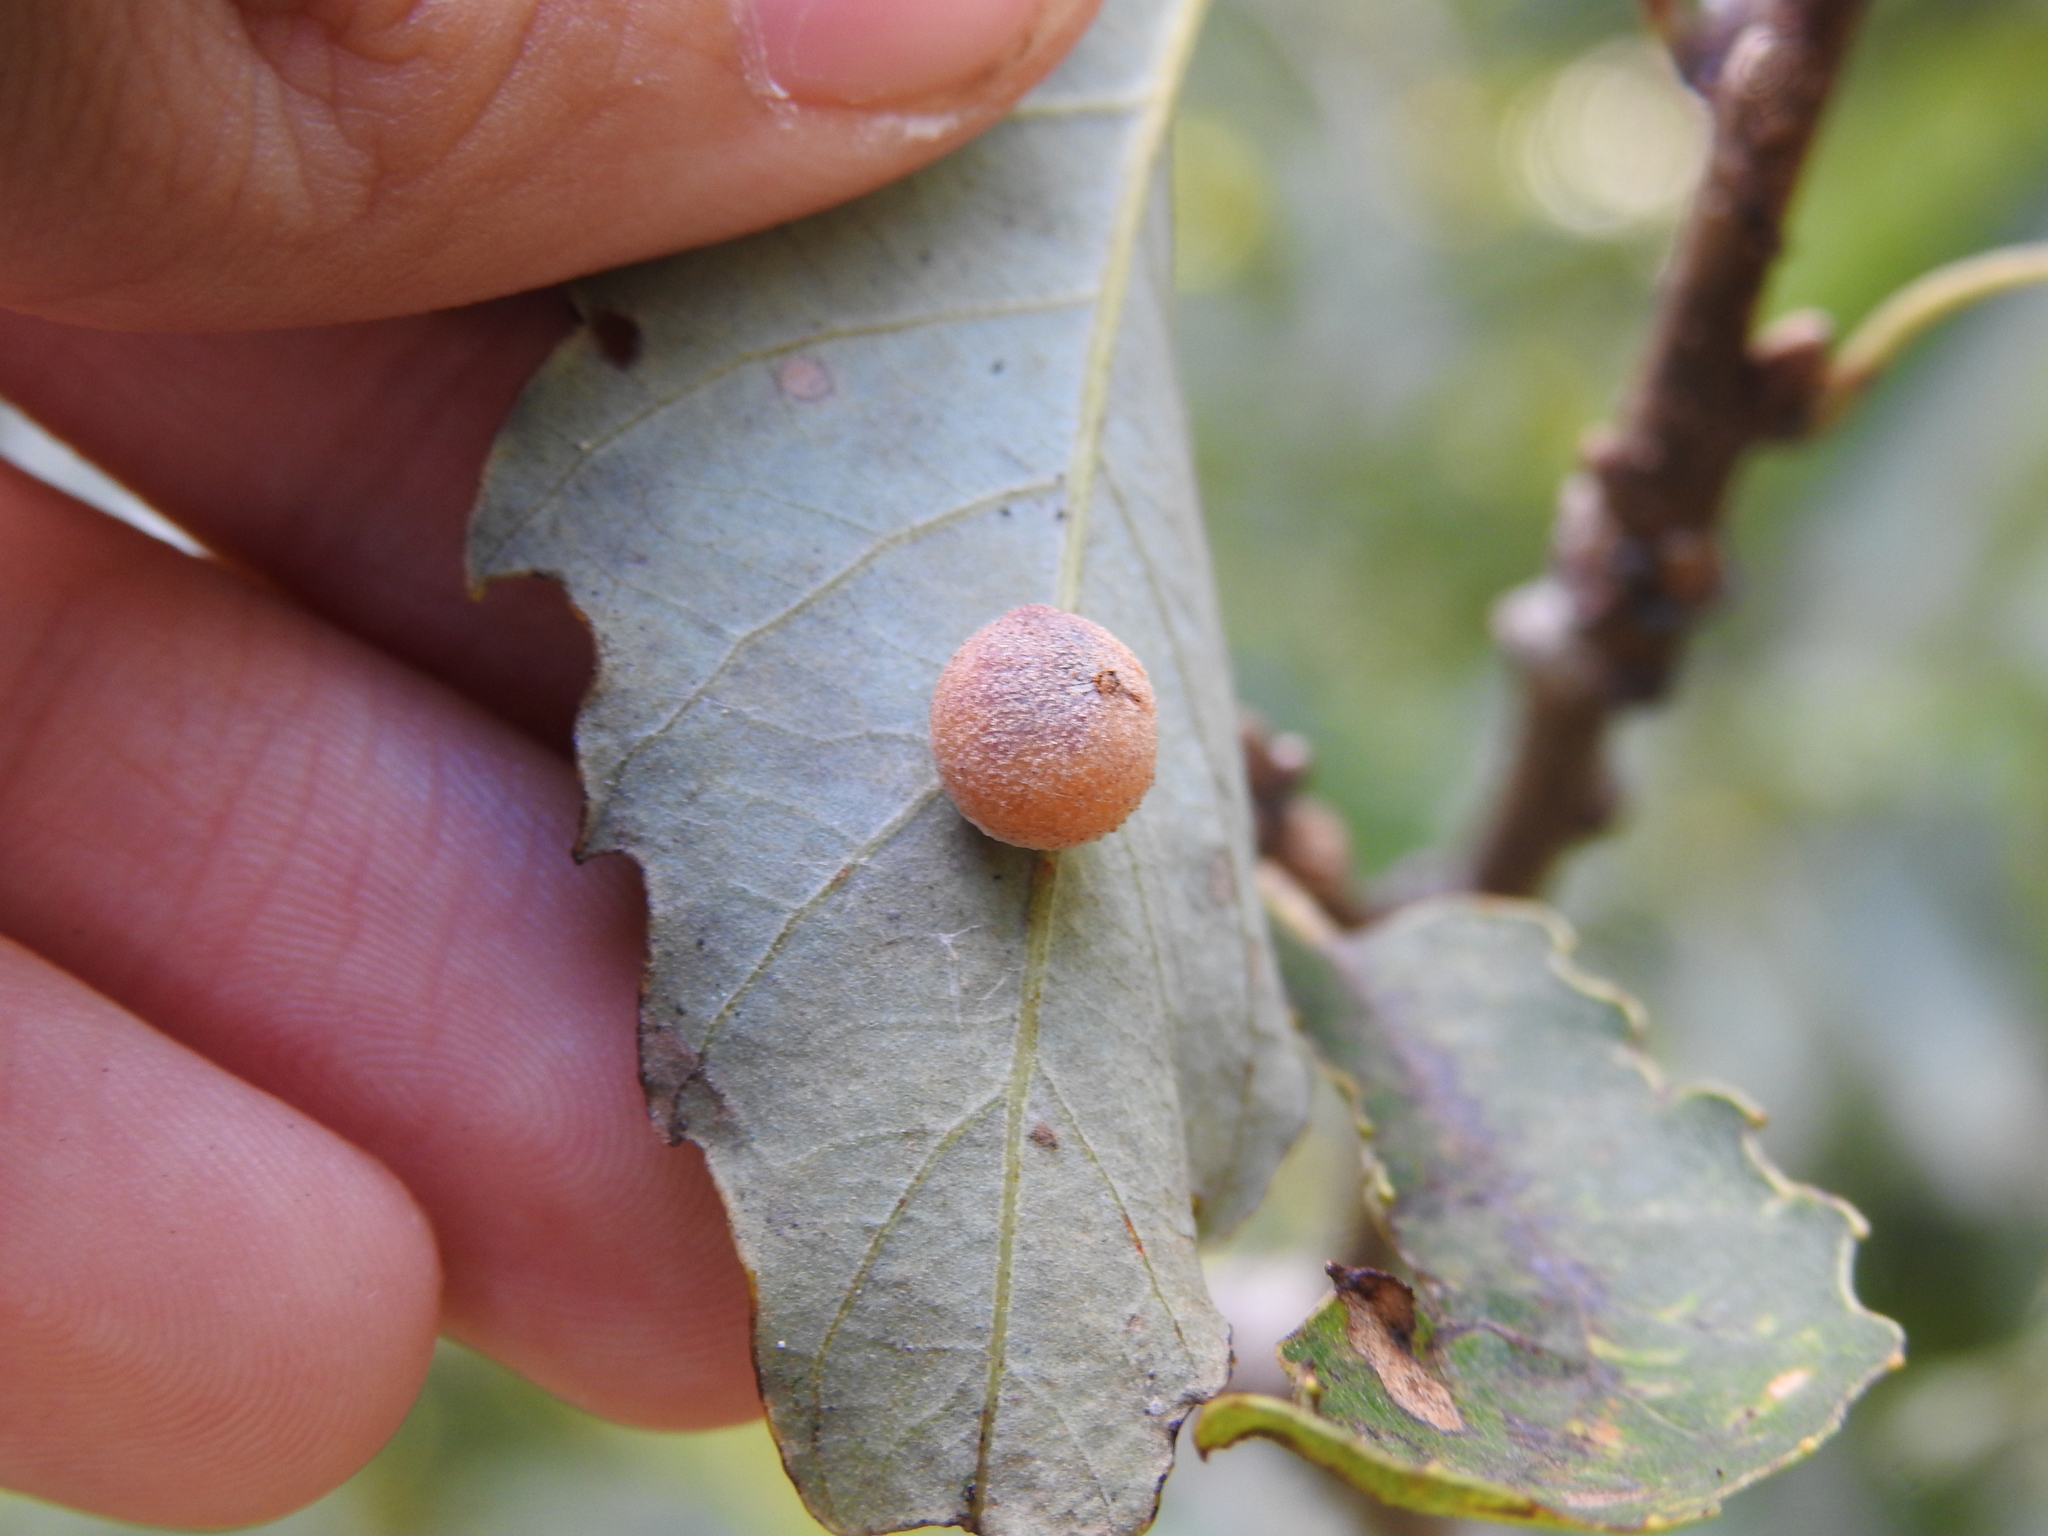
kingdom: Animalia
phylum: Arthropoda
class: Insecta
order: Hymenoptera
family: Cynipidae
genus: Philonix
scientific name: Philonix fulvicollis
